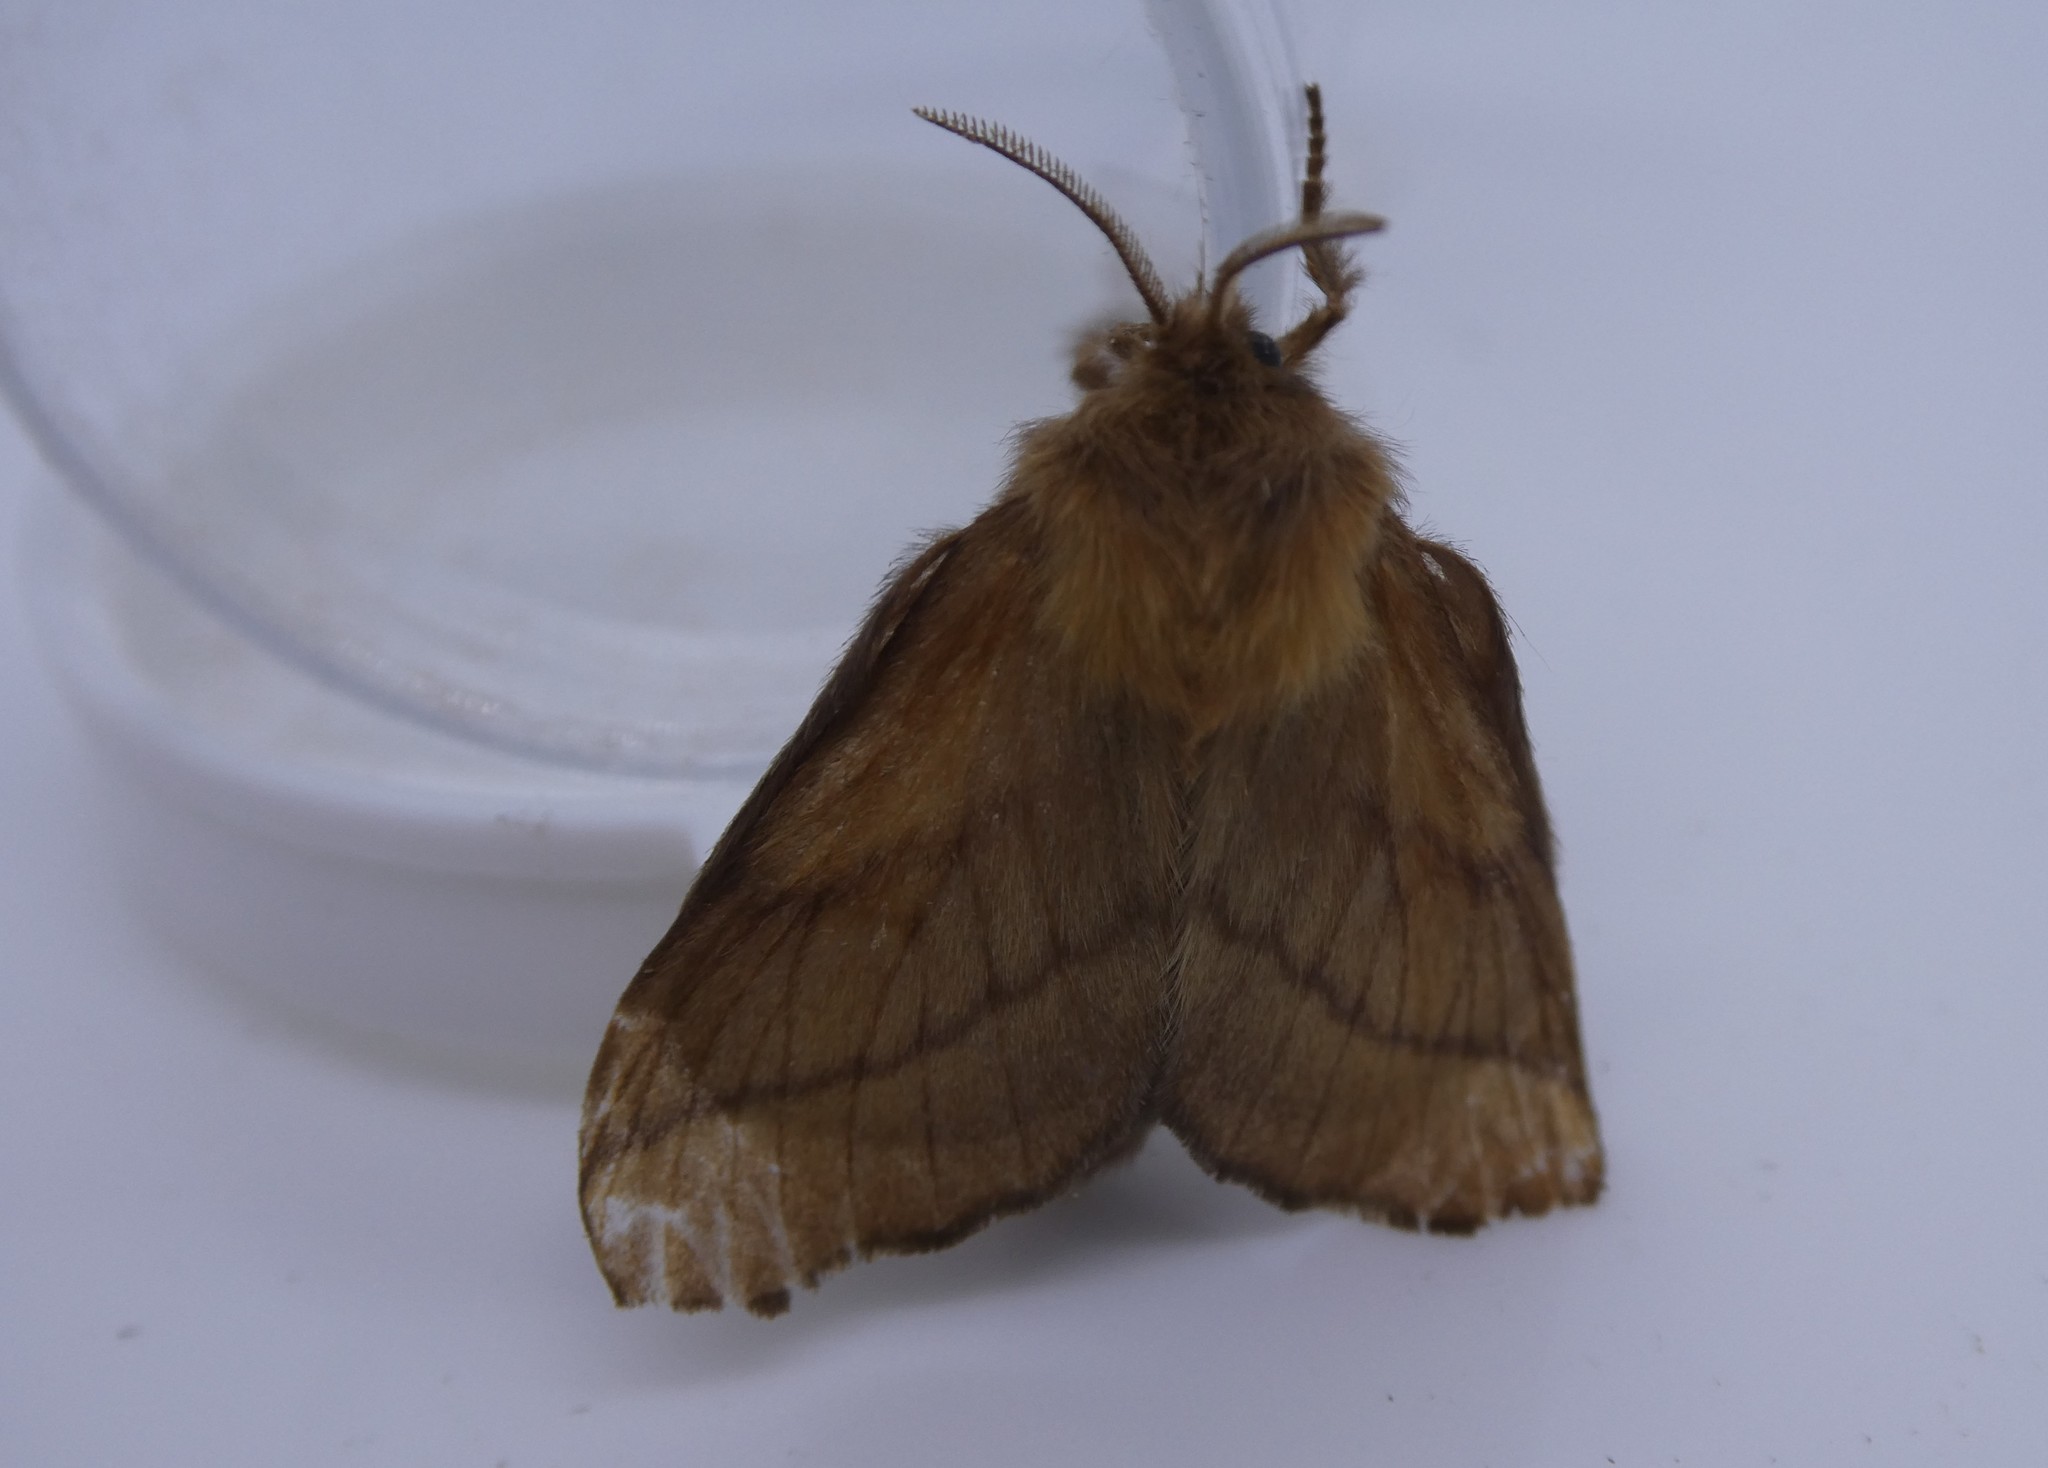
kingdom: Animalia
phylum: Arthropoda
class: Insecta
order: Lepidoptera
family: Lasiocampidae
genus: Malacosoma
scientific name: Malacosoma disstria
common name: Forest tent caterpillar
